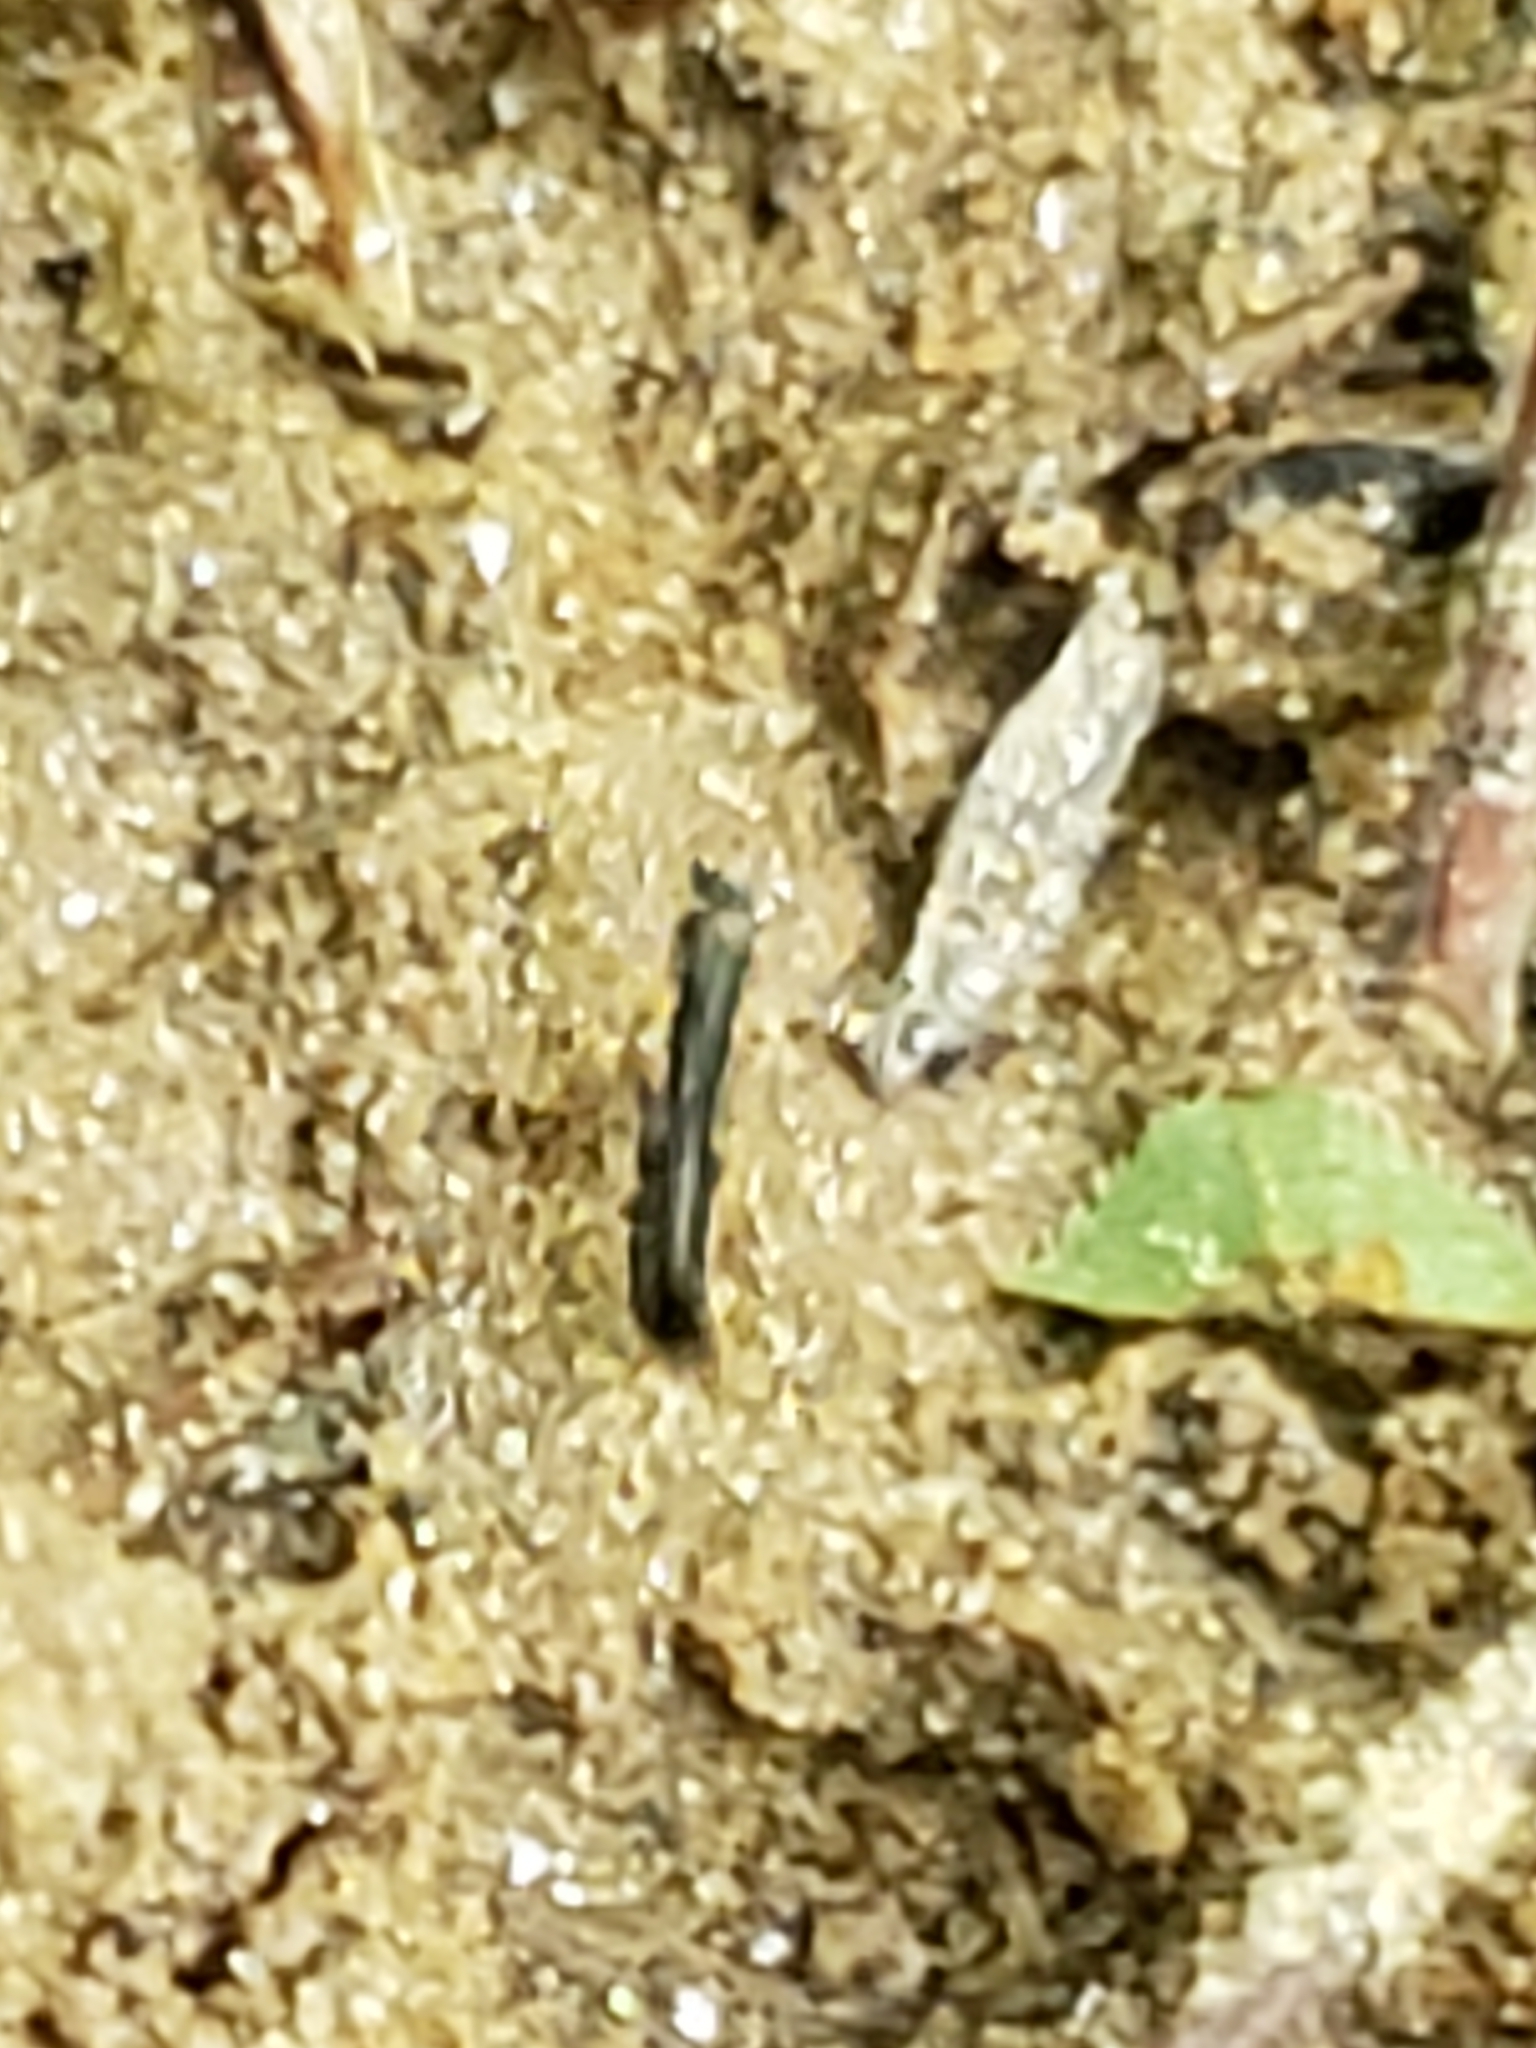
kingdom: Animalia
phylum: Arthropoda
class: Insecta
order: Coleoptera
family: Staphylinidae
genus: Stenus
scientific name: Stenus colon
